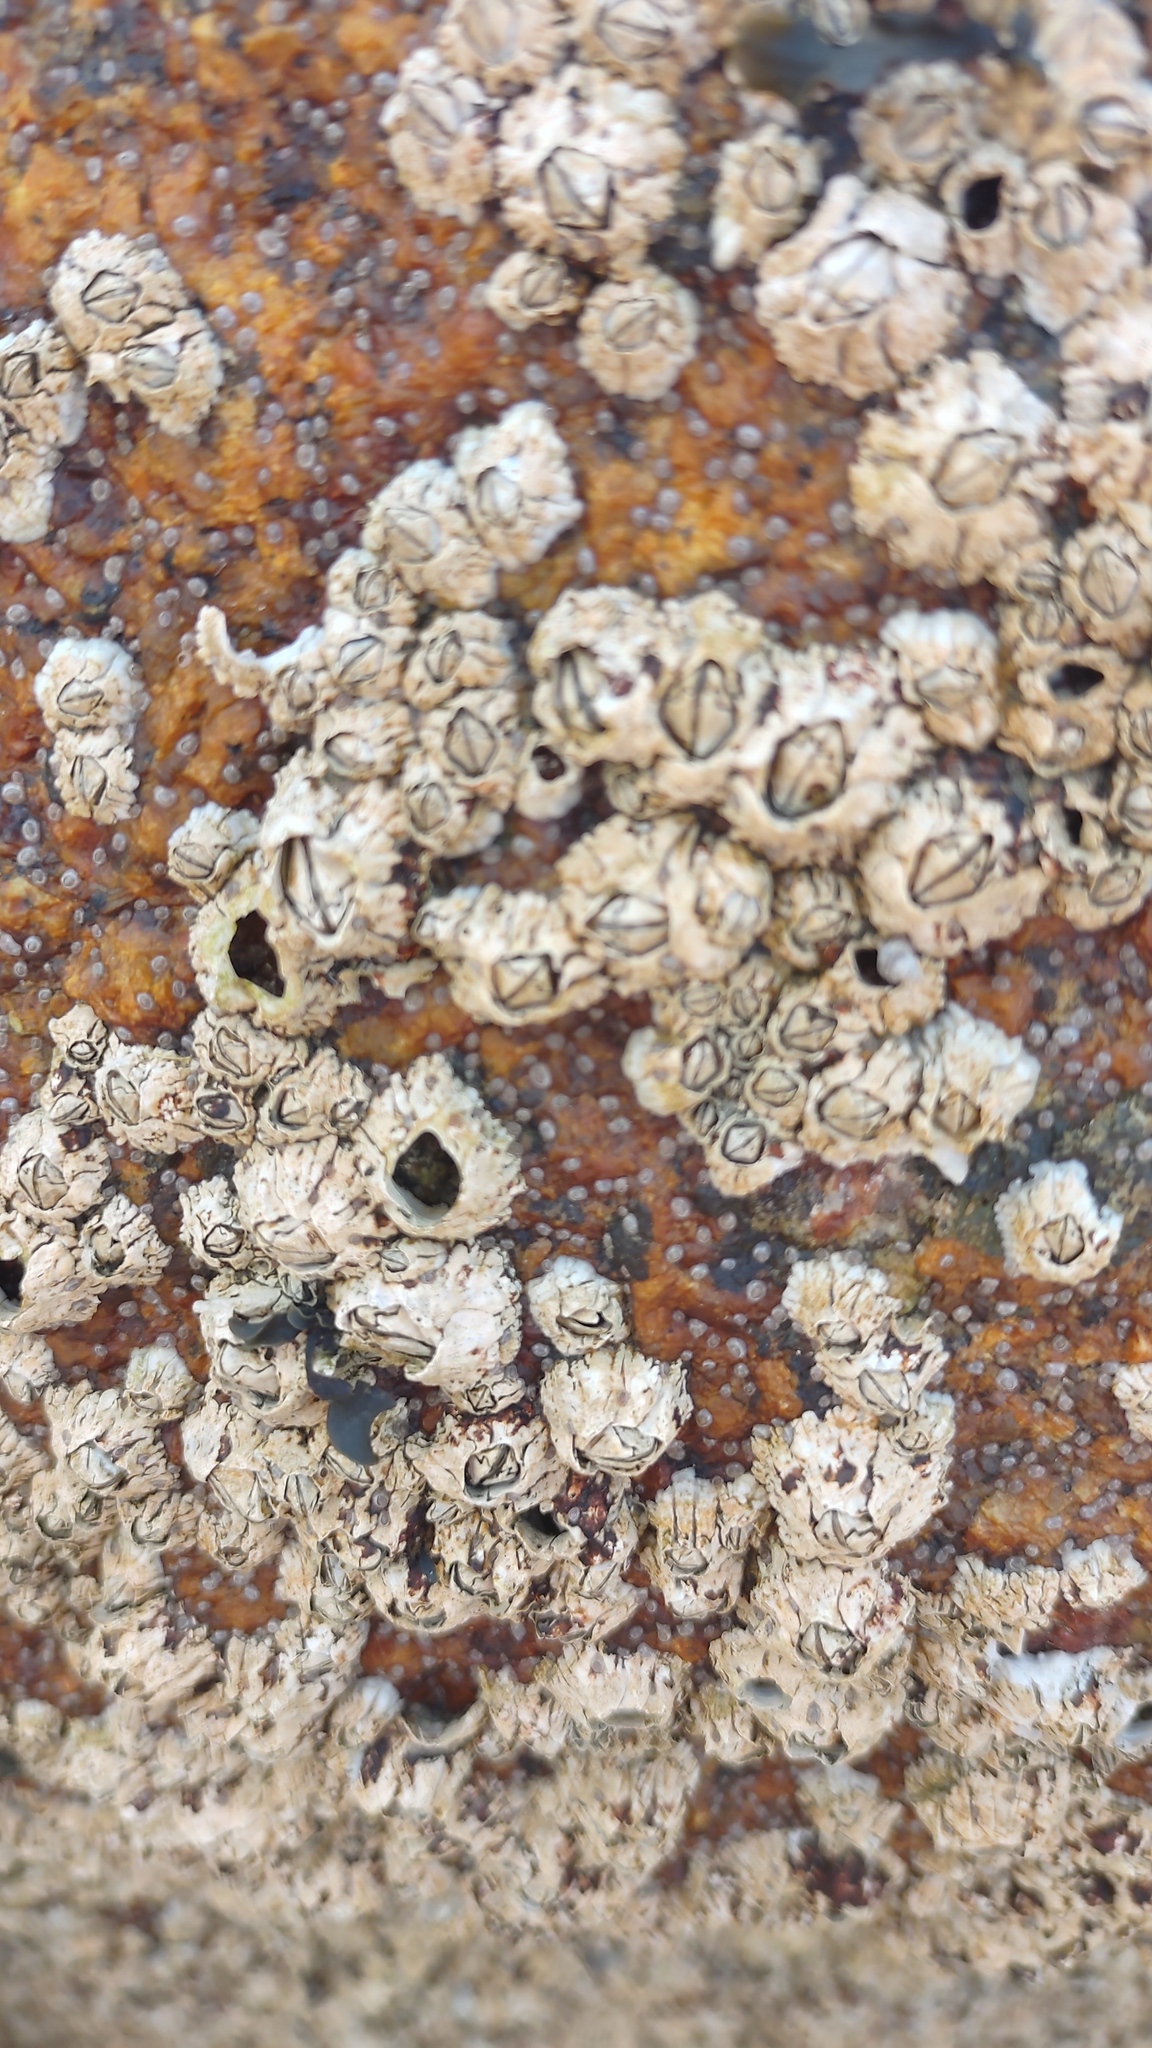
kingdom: Animalia
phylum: Arthropoda
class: Maxillopoda
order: Sessilia
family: Archaeobalanidae
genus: Semibalanus
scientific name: Semibalanus balanoides
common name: Acorn barnacle
